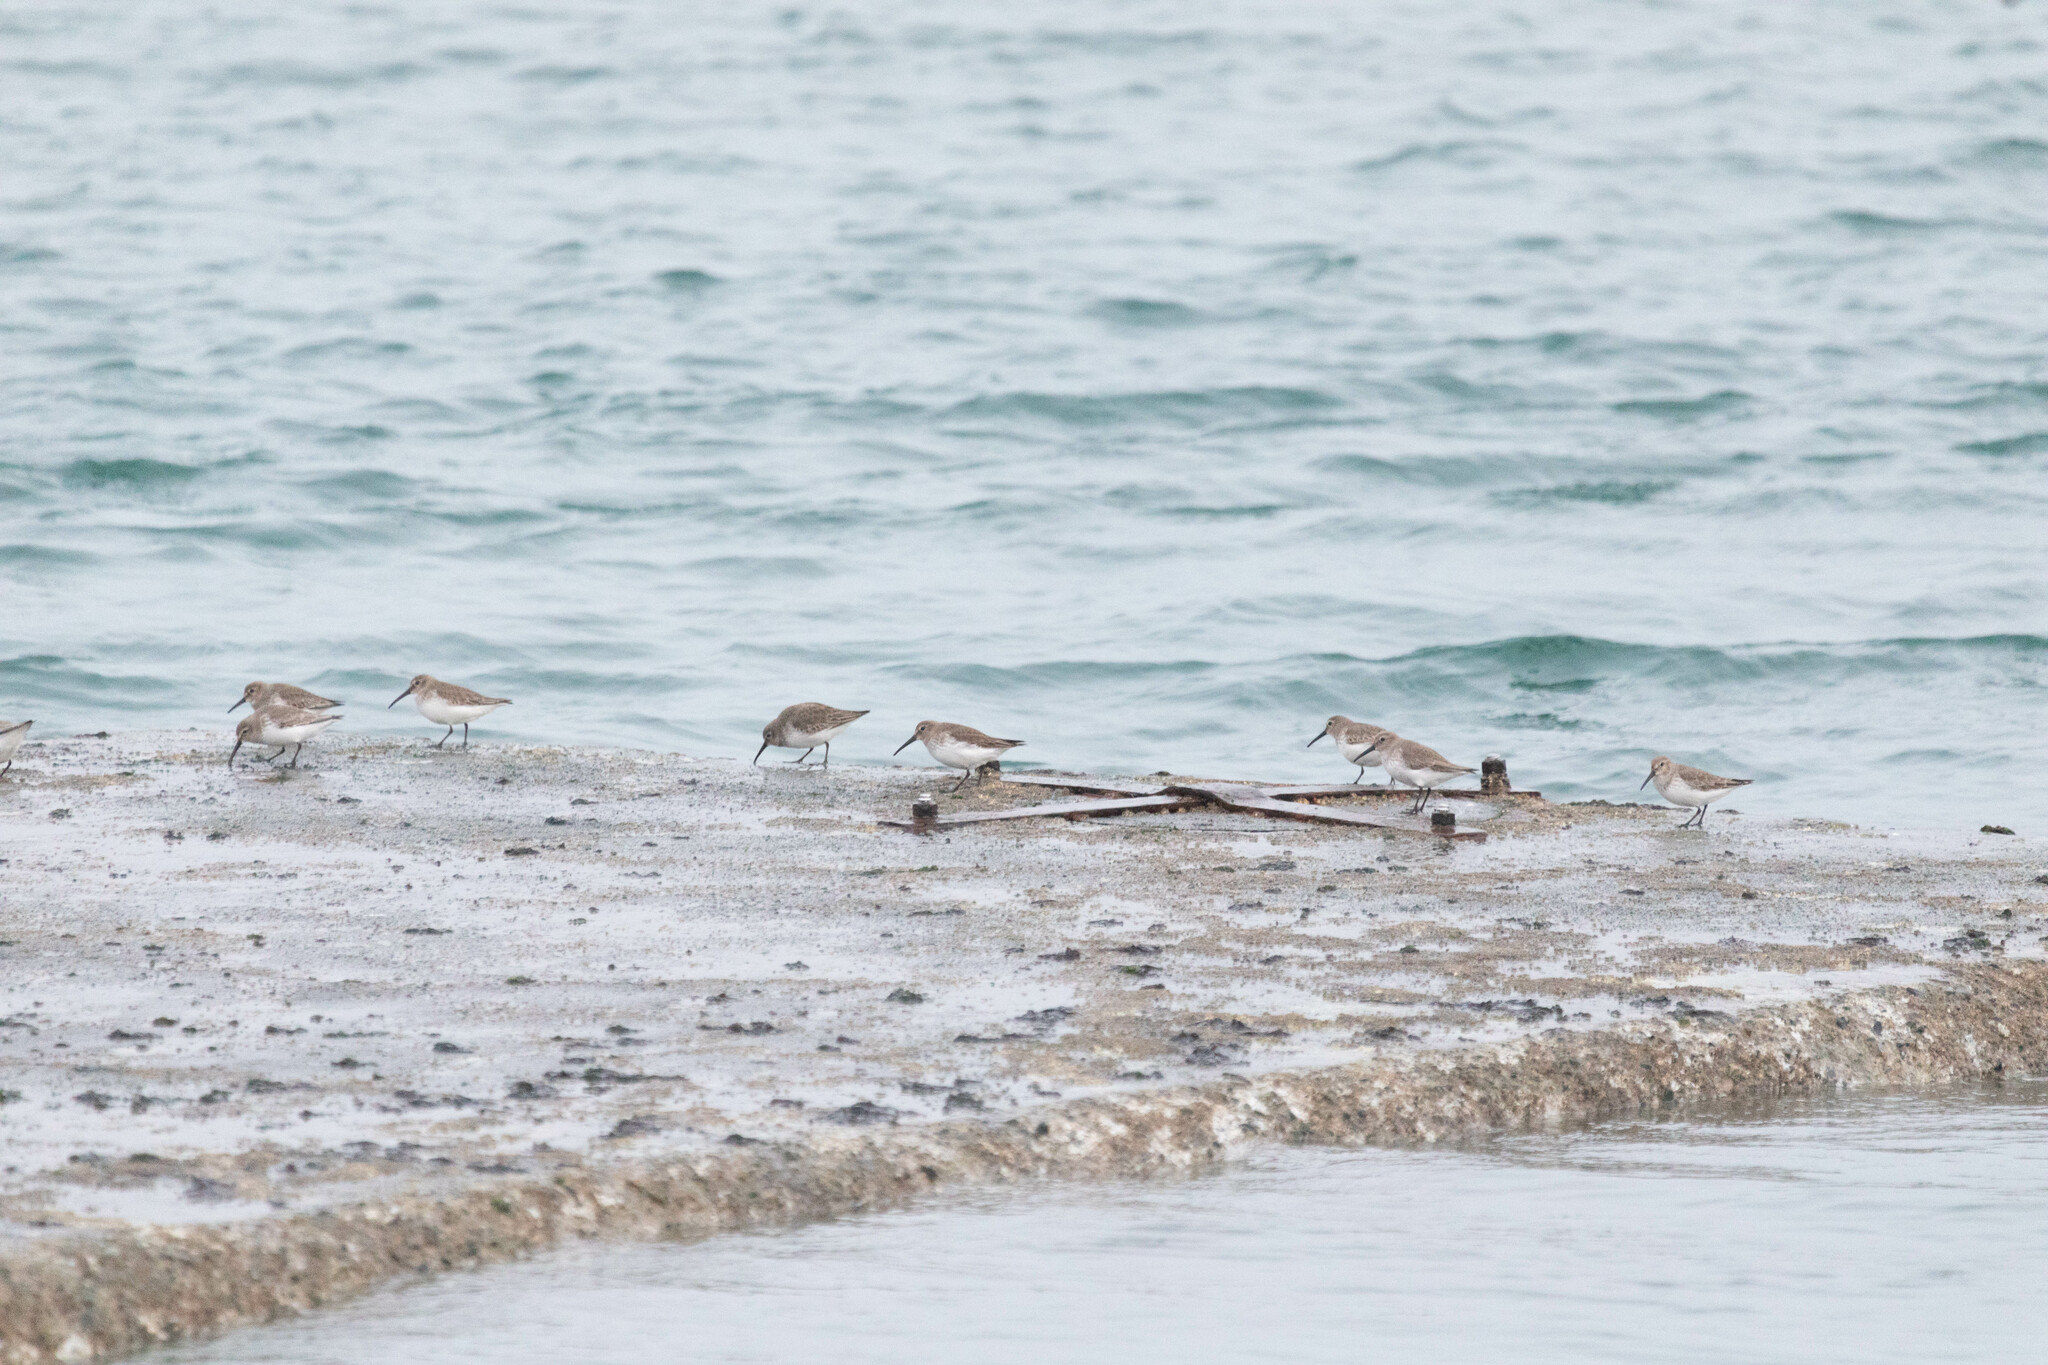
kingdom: Animalia
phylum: Chordata
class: Aves
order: Charadriiformes
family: Scolopacidae
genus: Calidris
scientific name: Calidris alpina
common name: Dunlin
